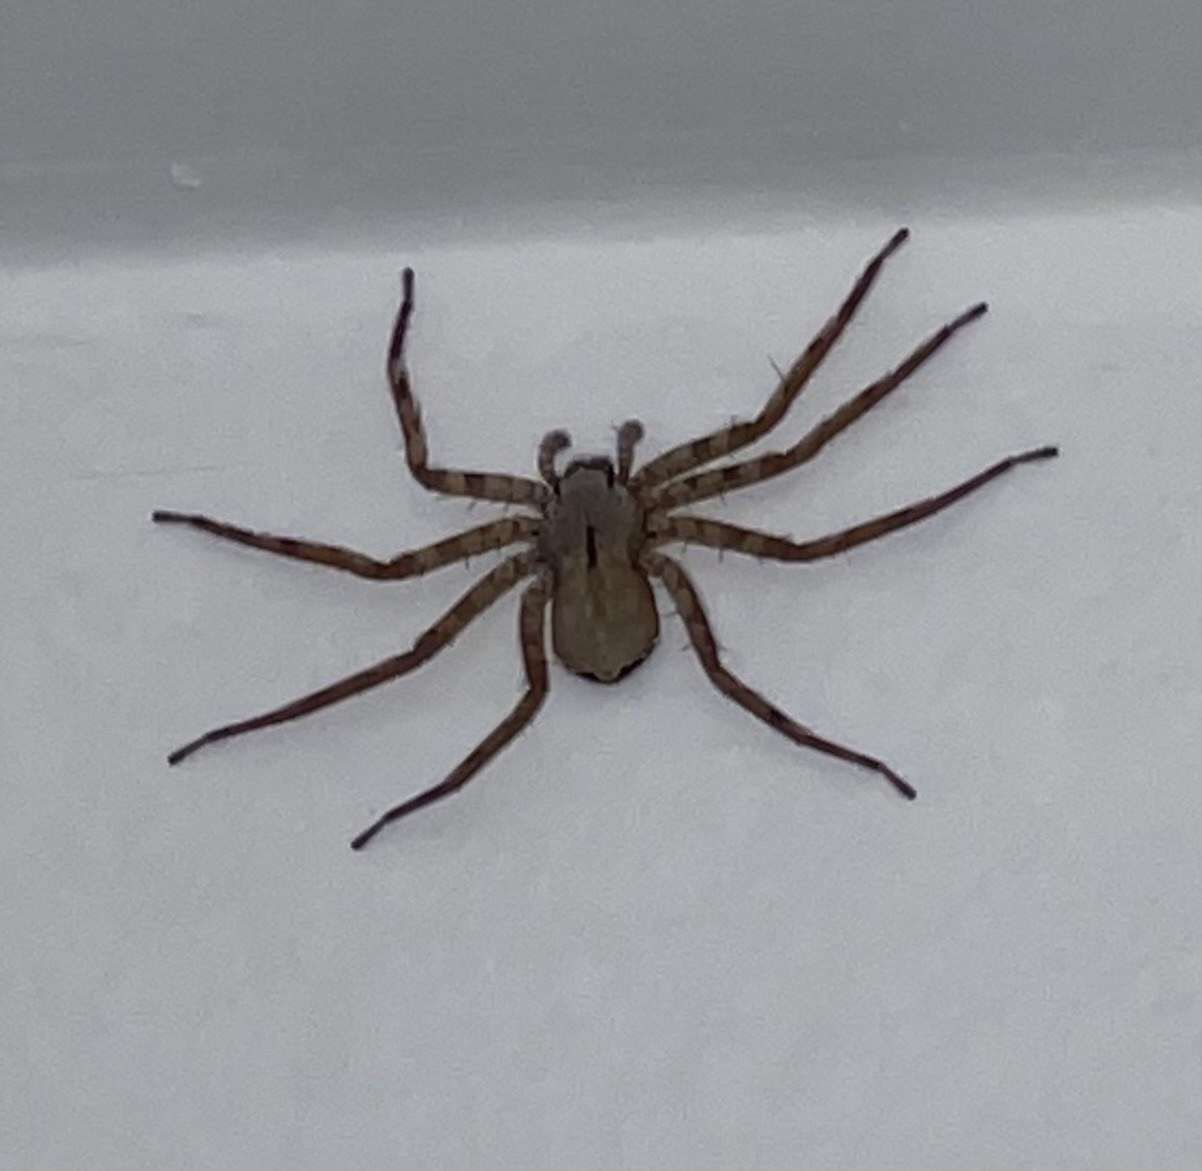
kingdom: Animalia
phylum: Arthropoda
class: Arachnida
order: Araneae
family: Selenopidae
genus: Selenops
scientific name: Selenops submaculosus
